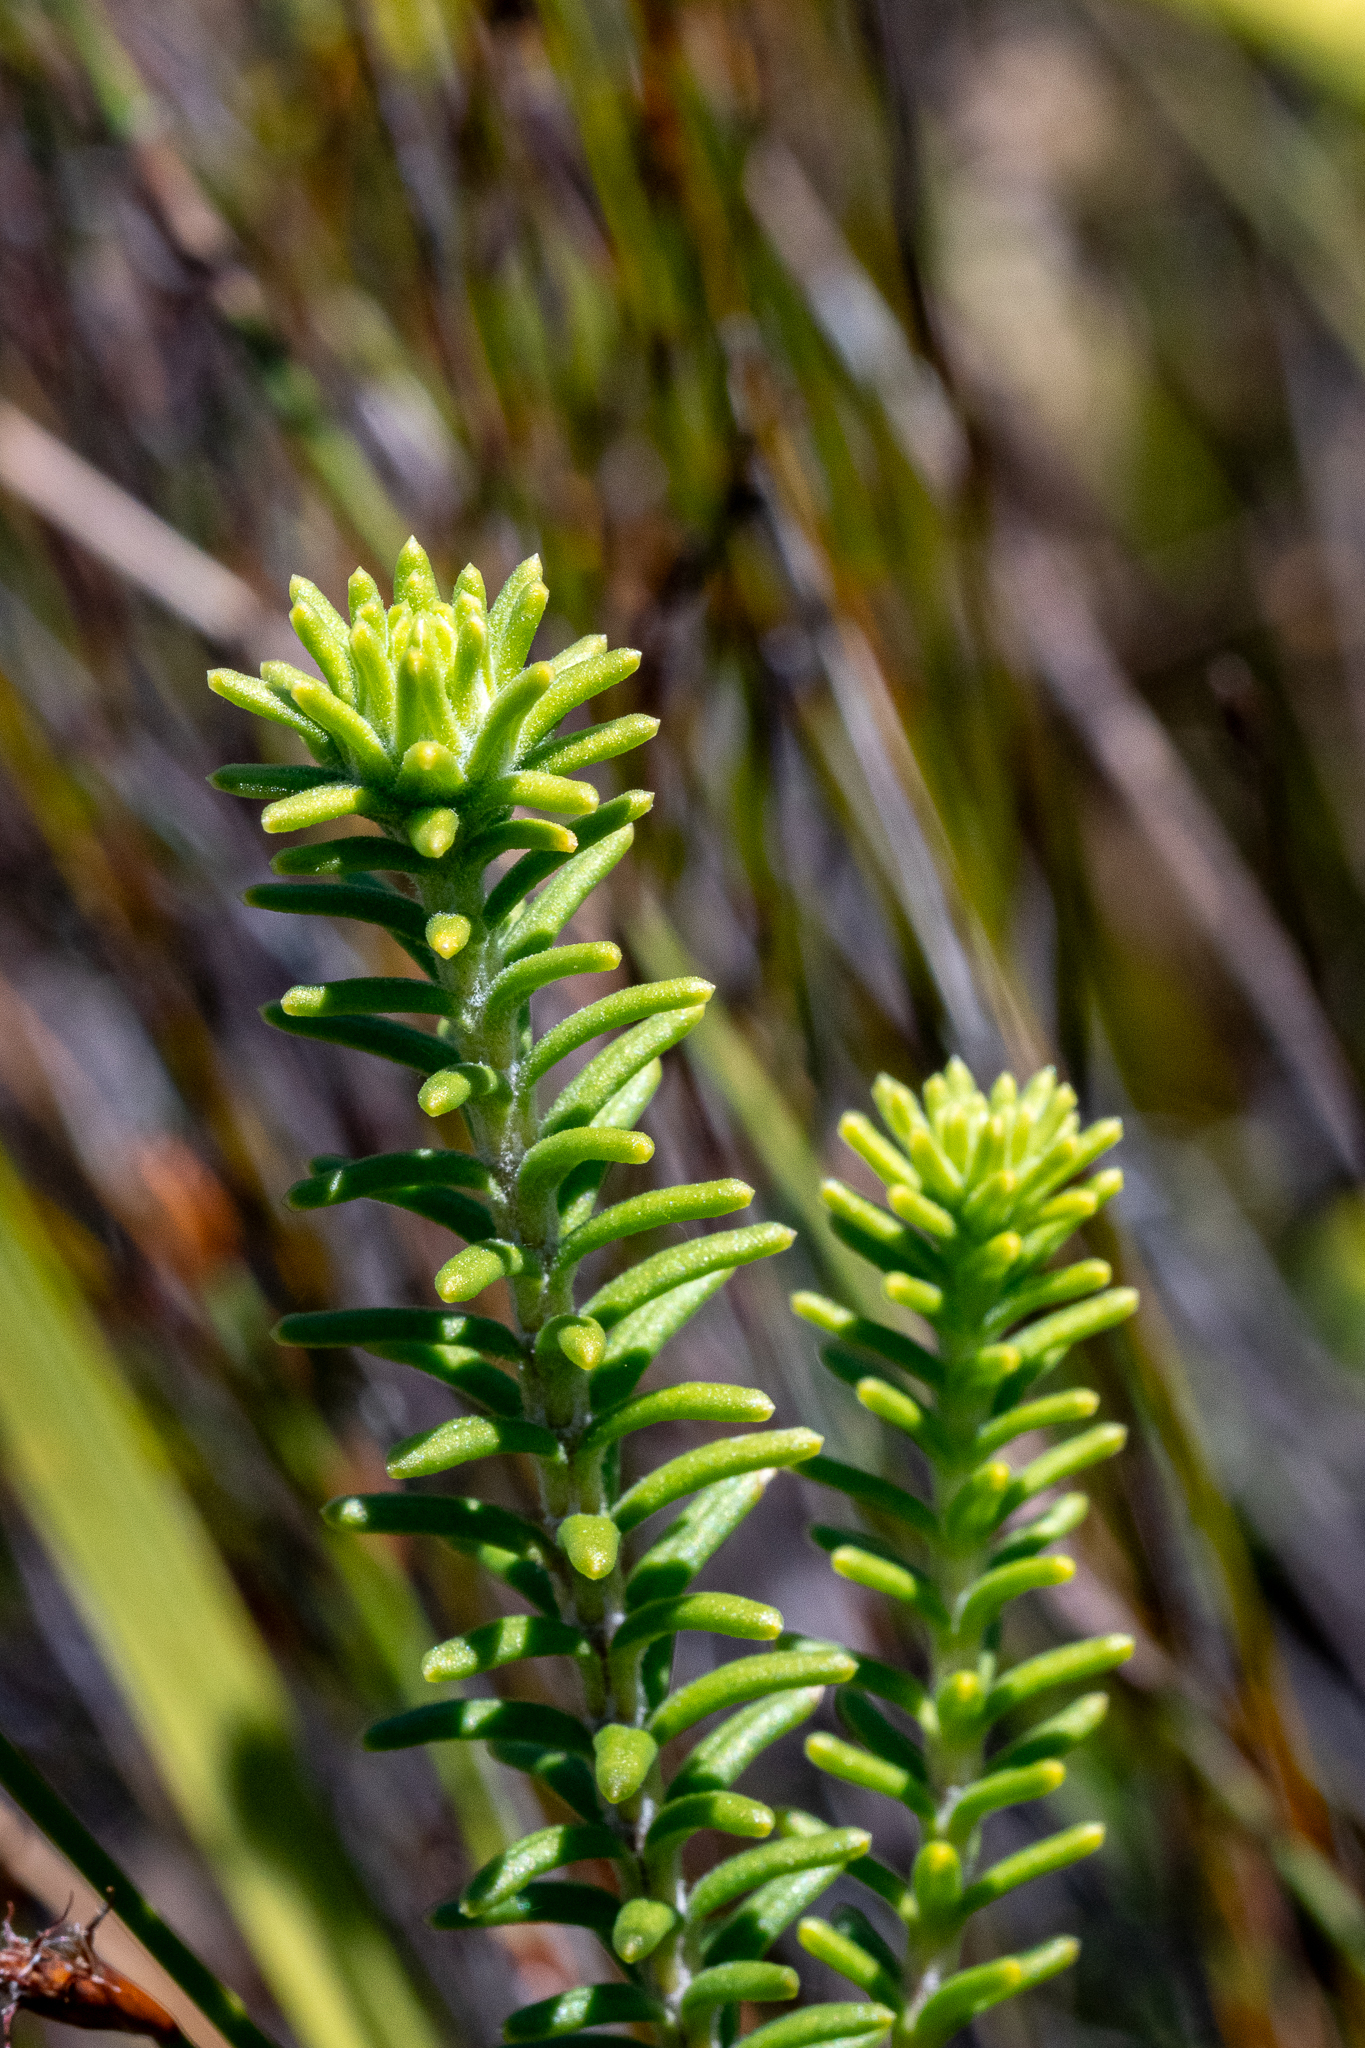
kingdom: Plantae
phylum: Tracheophyta
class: Magnoliopsida
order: Lamiales
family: Stilbaceae
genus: Campylostachys
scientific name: Campylostachys cernua
